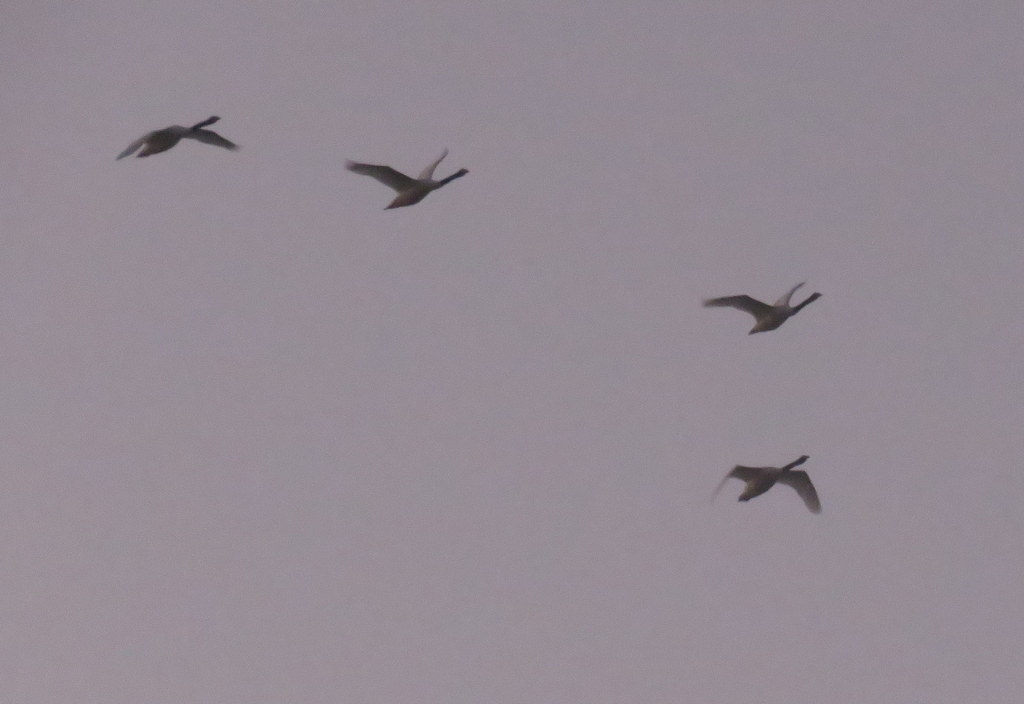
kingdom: Animalia
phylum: Chordata
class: Aves
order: Anseriformes
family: Anatidae
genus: Cygnus
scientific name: Cygnus melancoryphus
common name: Black-necked swan
